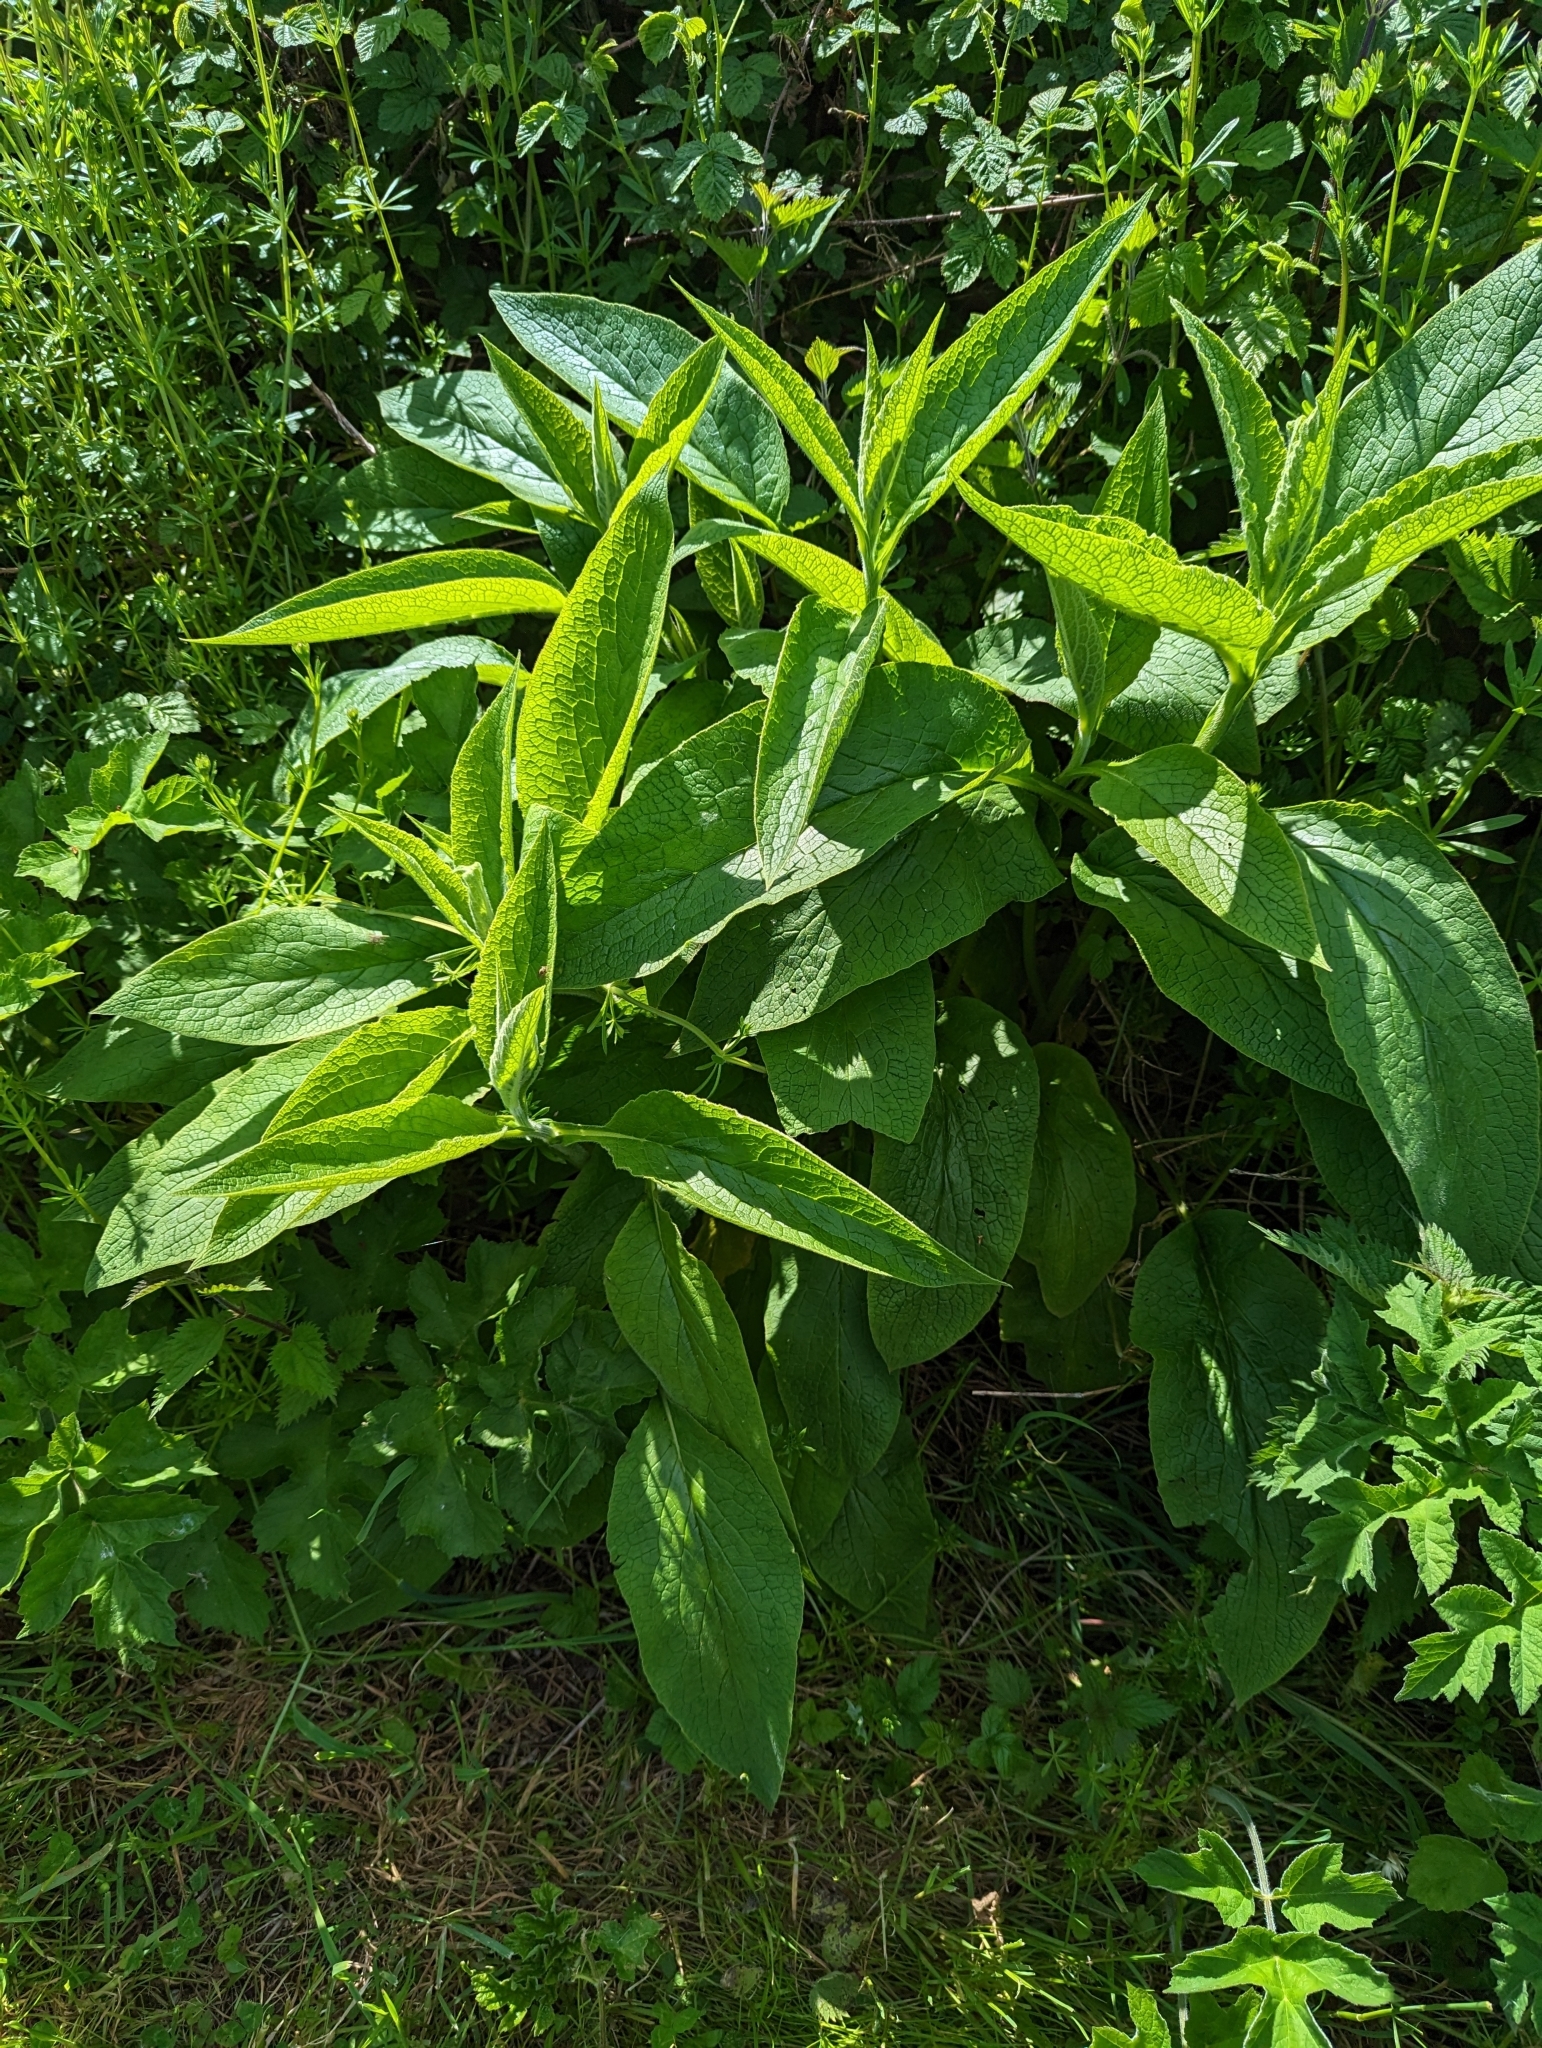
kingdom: Plantae
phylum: Tracheophyta
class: Magnoliopsida
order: Boraginales
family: Boraginaceae
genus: Symphytum
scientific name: Symphytum officinale
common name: Common comfrey
